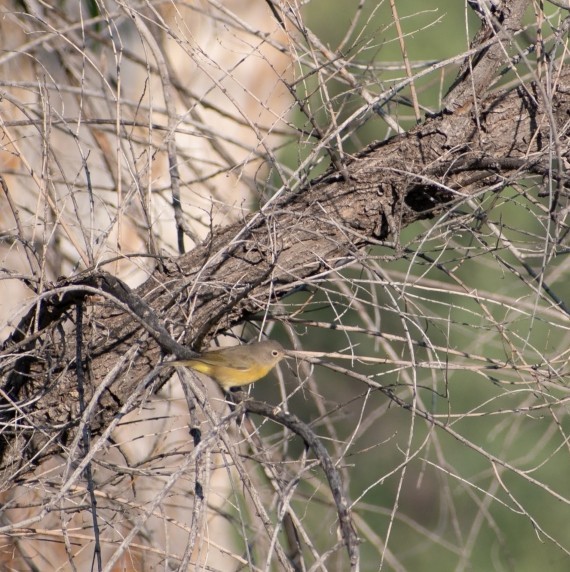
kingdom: Animalia
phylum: Chordata
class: Aves
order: Passeriformes
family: Parulidae
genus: Leiothlypis
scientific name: Leiothlypis ruficapilla
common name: Nashville warbler
